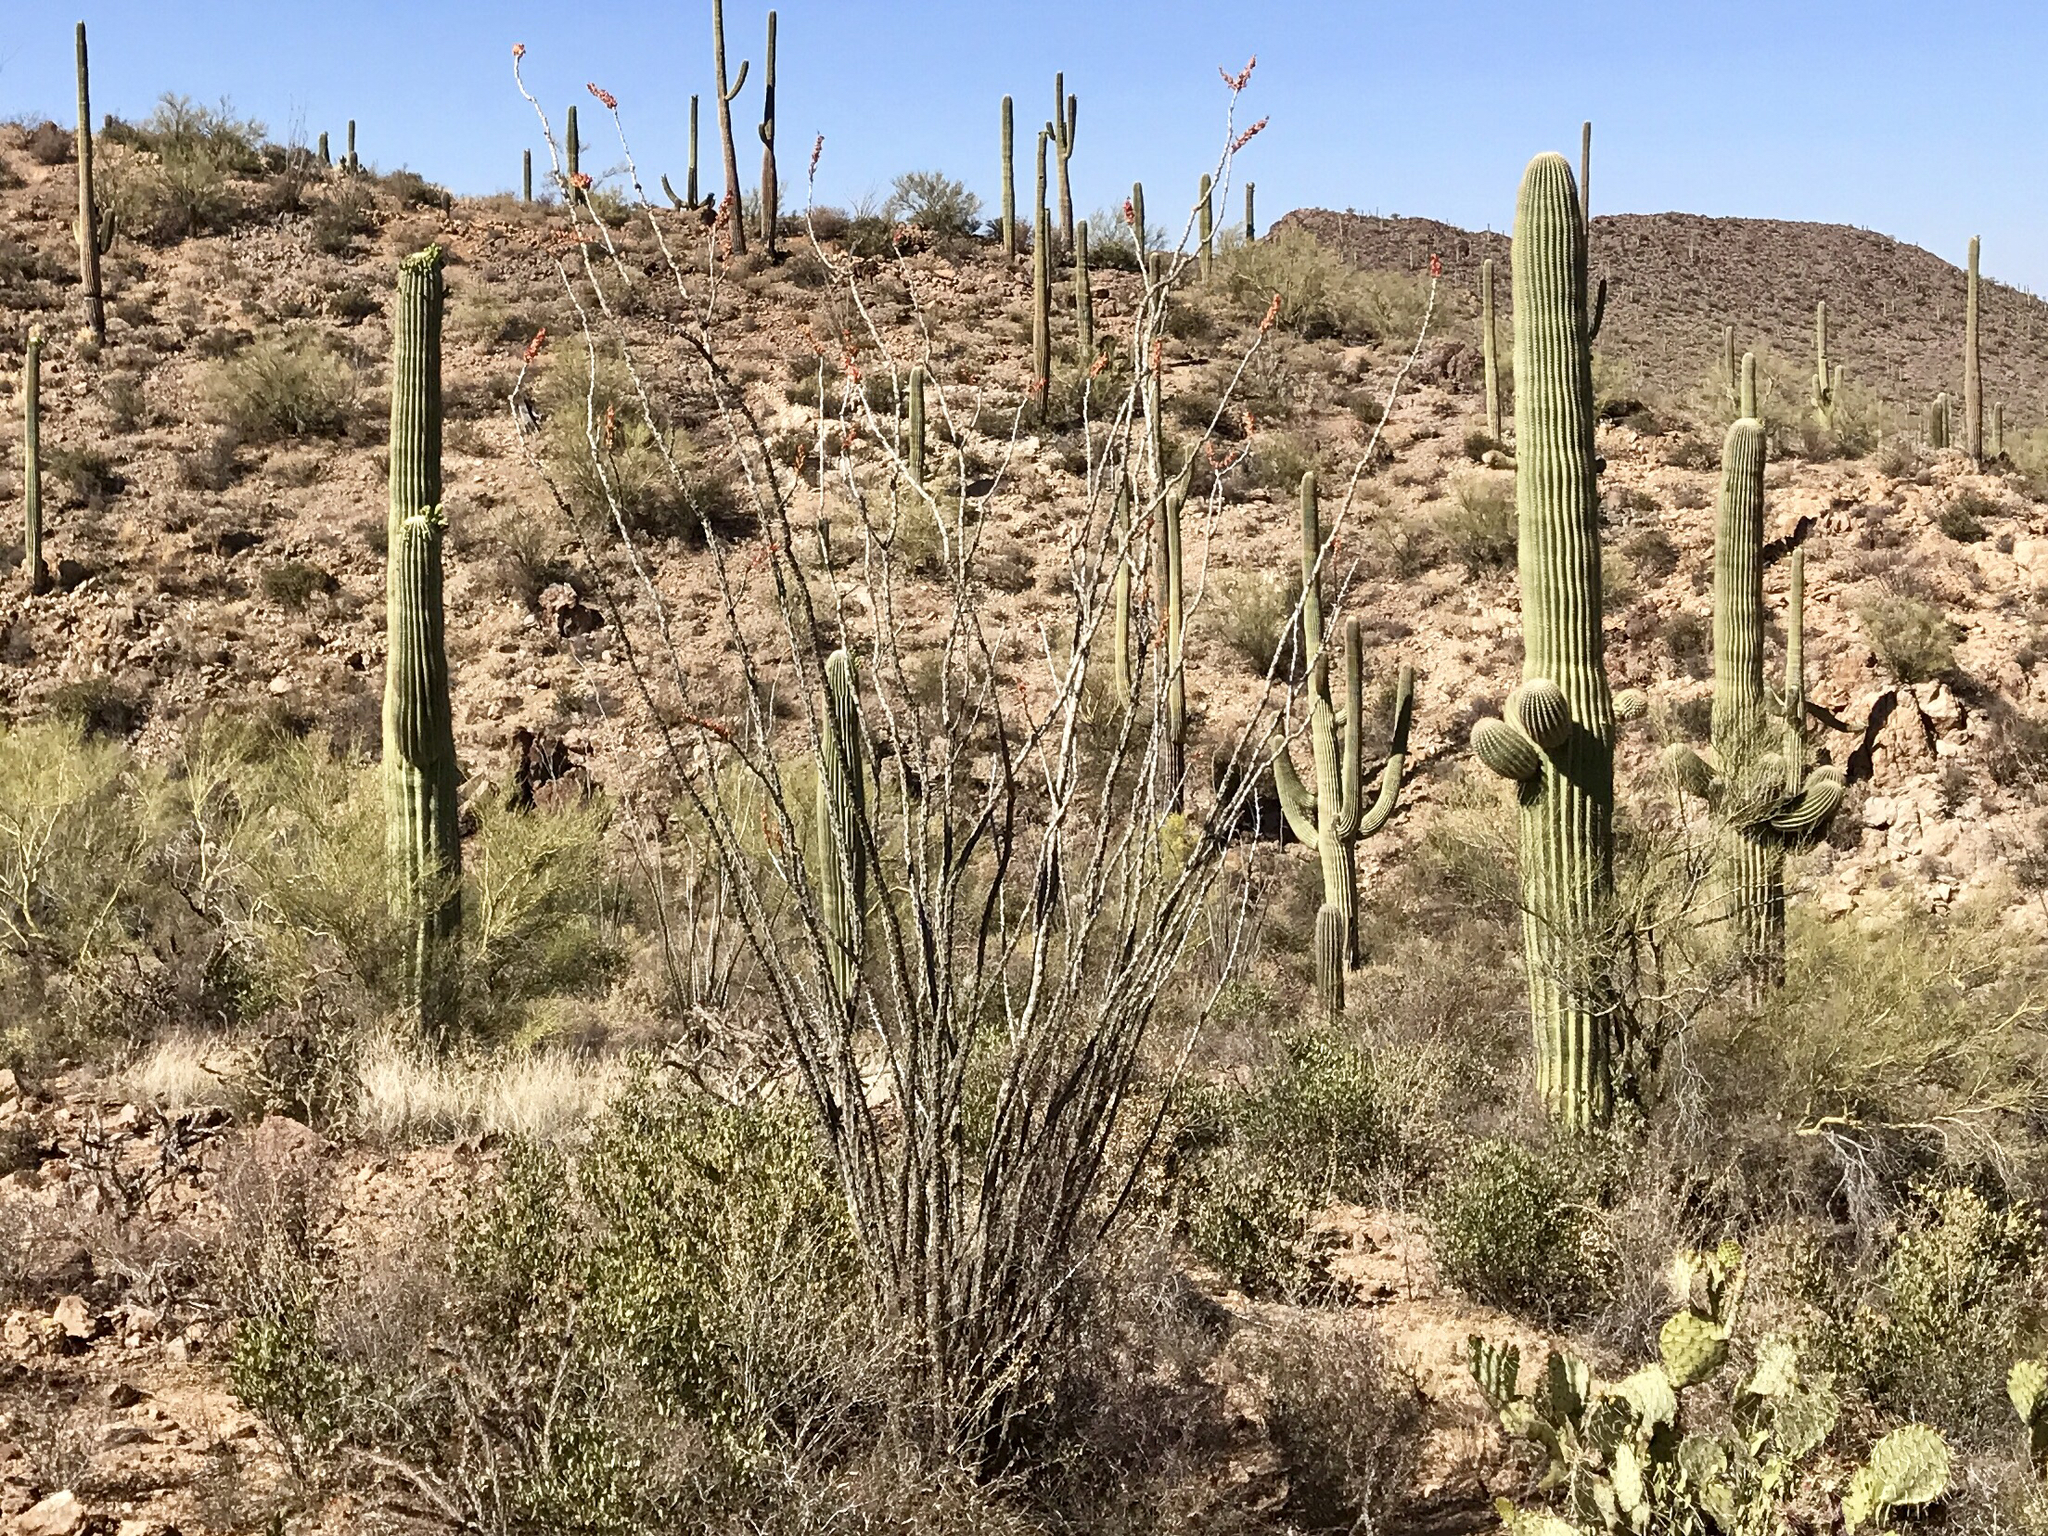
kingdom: Plantae
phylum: Tracheophyta
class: Magnoliopsida
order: Ericales
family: Fouquieriaceae
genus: Fouquieria
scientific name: Fouquieria splendens
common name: Vine-cactus
